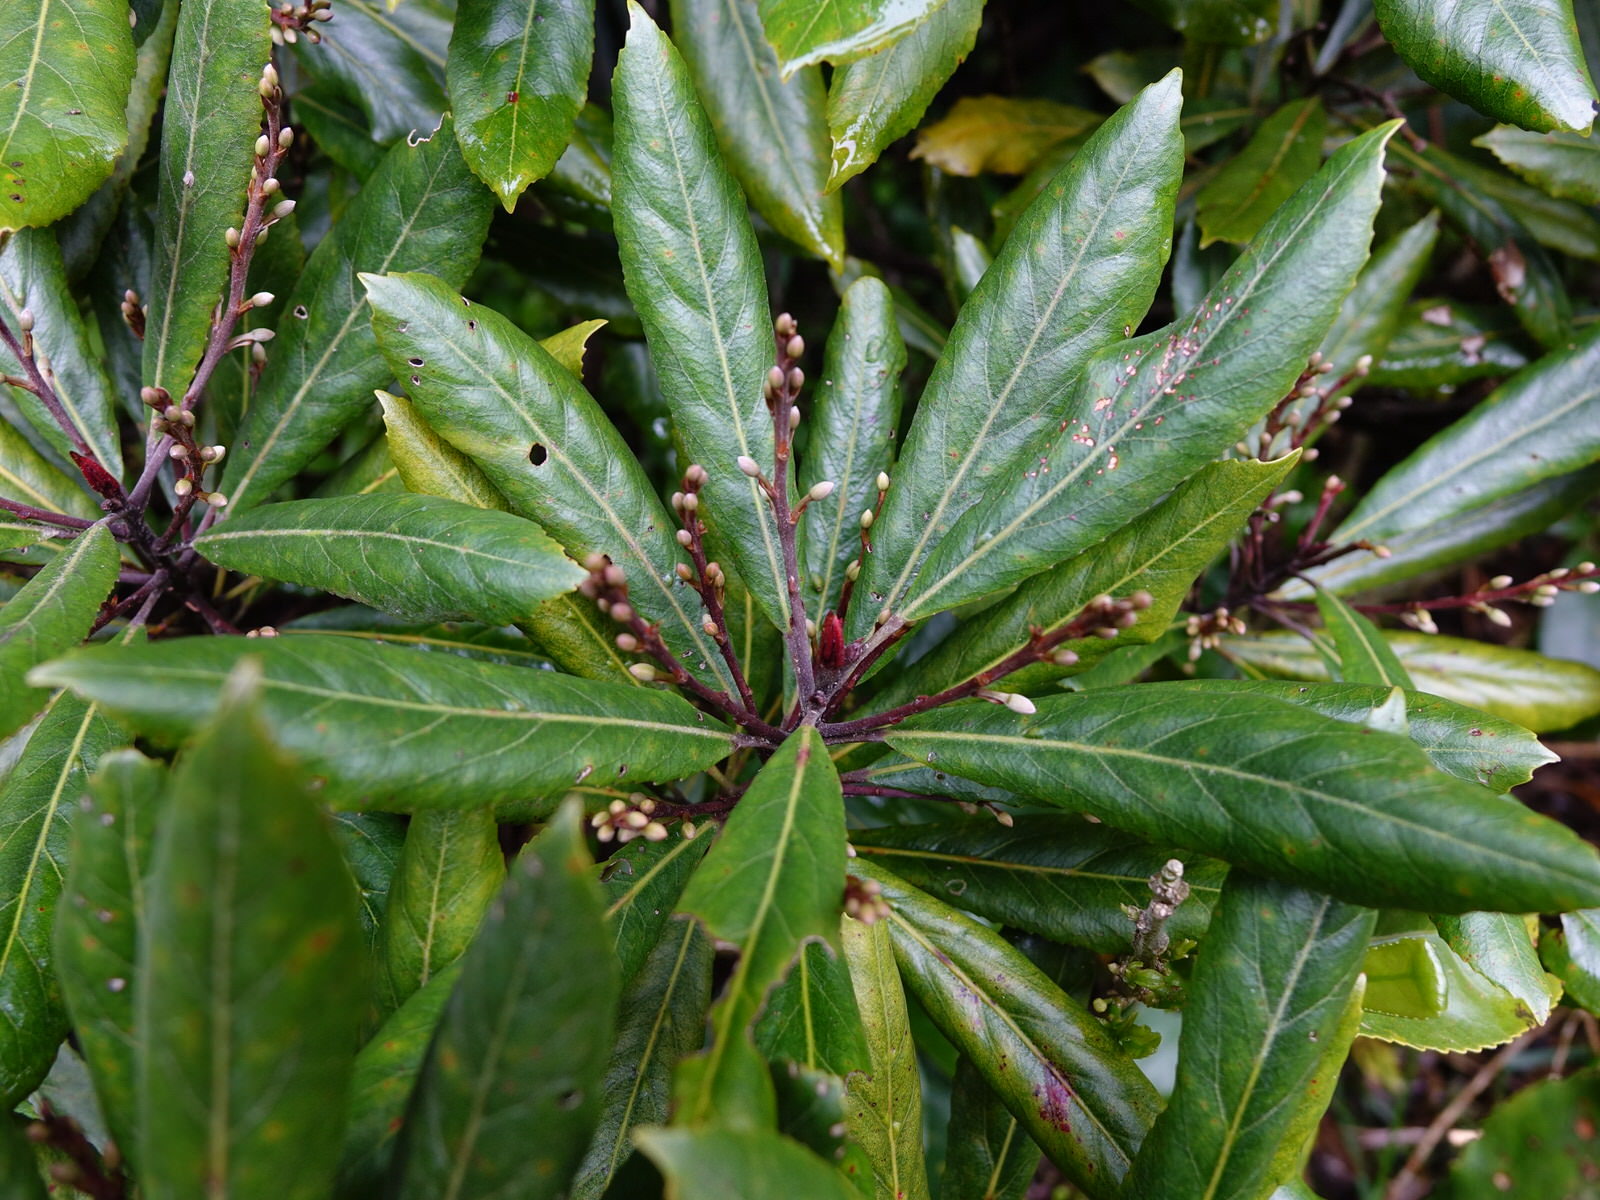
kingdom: Plantae
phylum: Tracheophyta
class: Magnoliopsida
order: Oxalidales
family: Elaeocarpaceae
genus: Elaeocarpus
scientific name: Elaeocarpus dentatus
